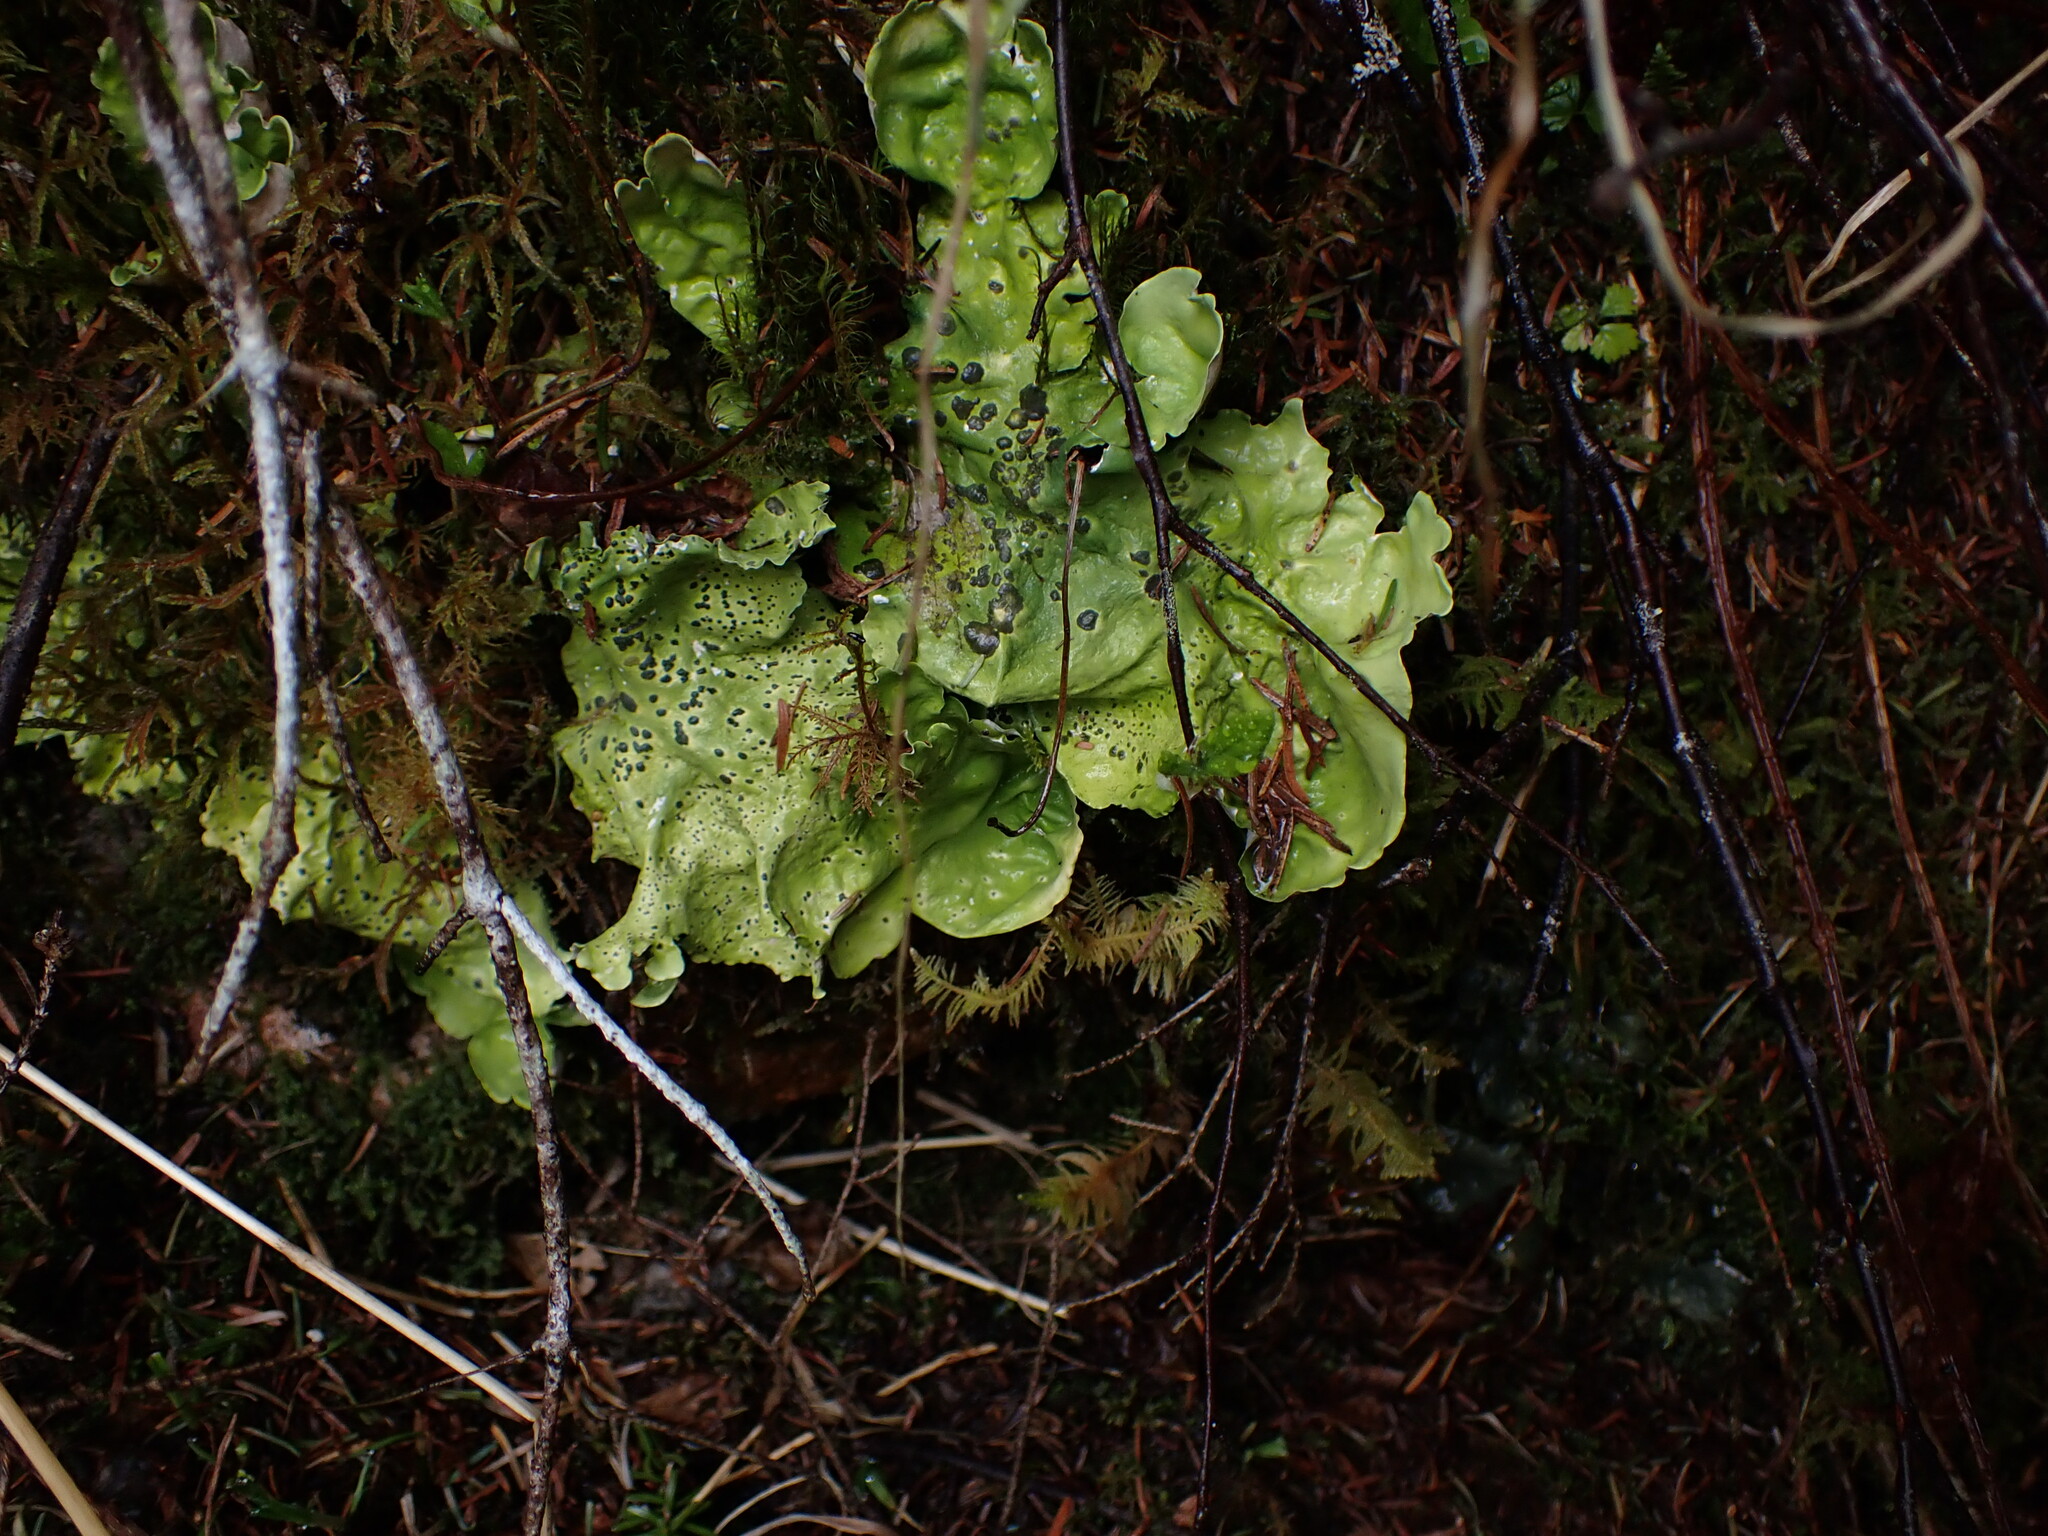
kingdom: Fungi
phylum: Ascomycota
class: Lecanoromycetes
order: Peltigerales
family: Nephromataceae
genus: Nephroma
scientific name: Nephroma arcticum
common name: Arctic kidney-lichen
